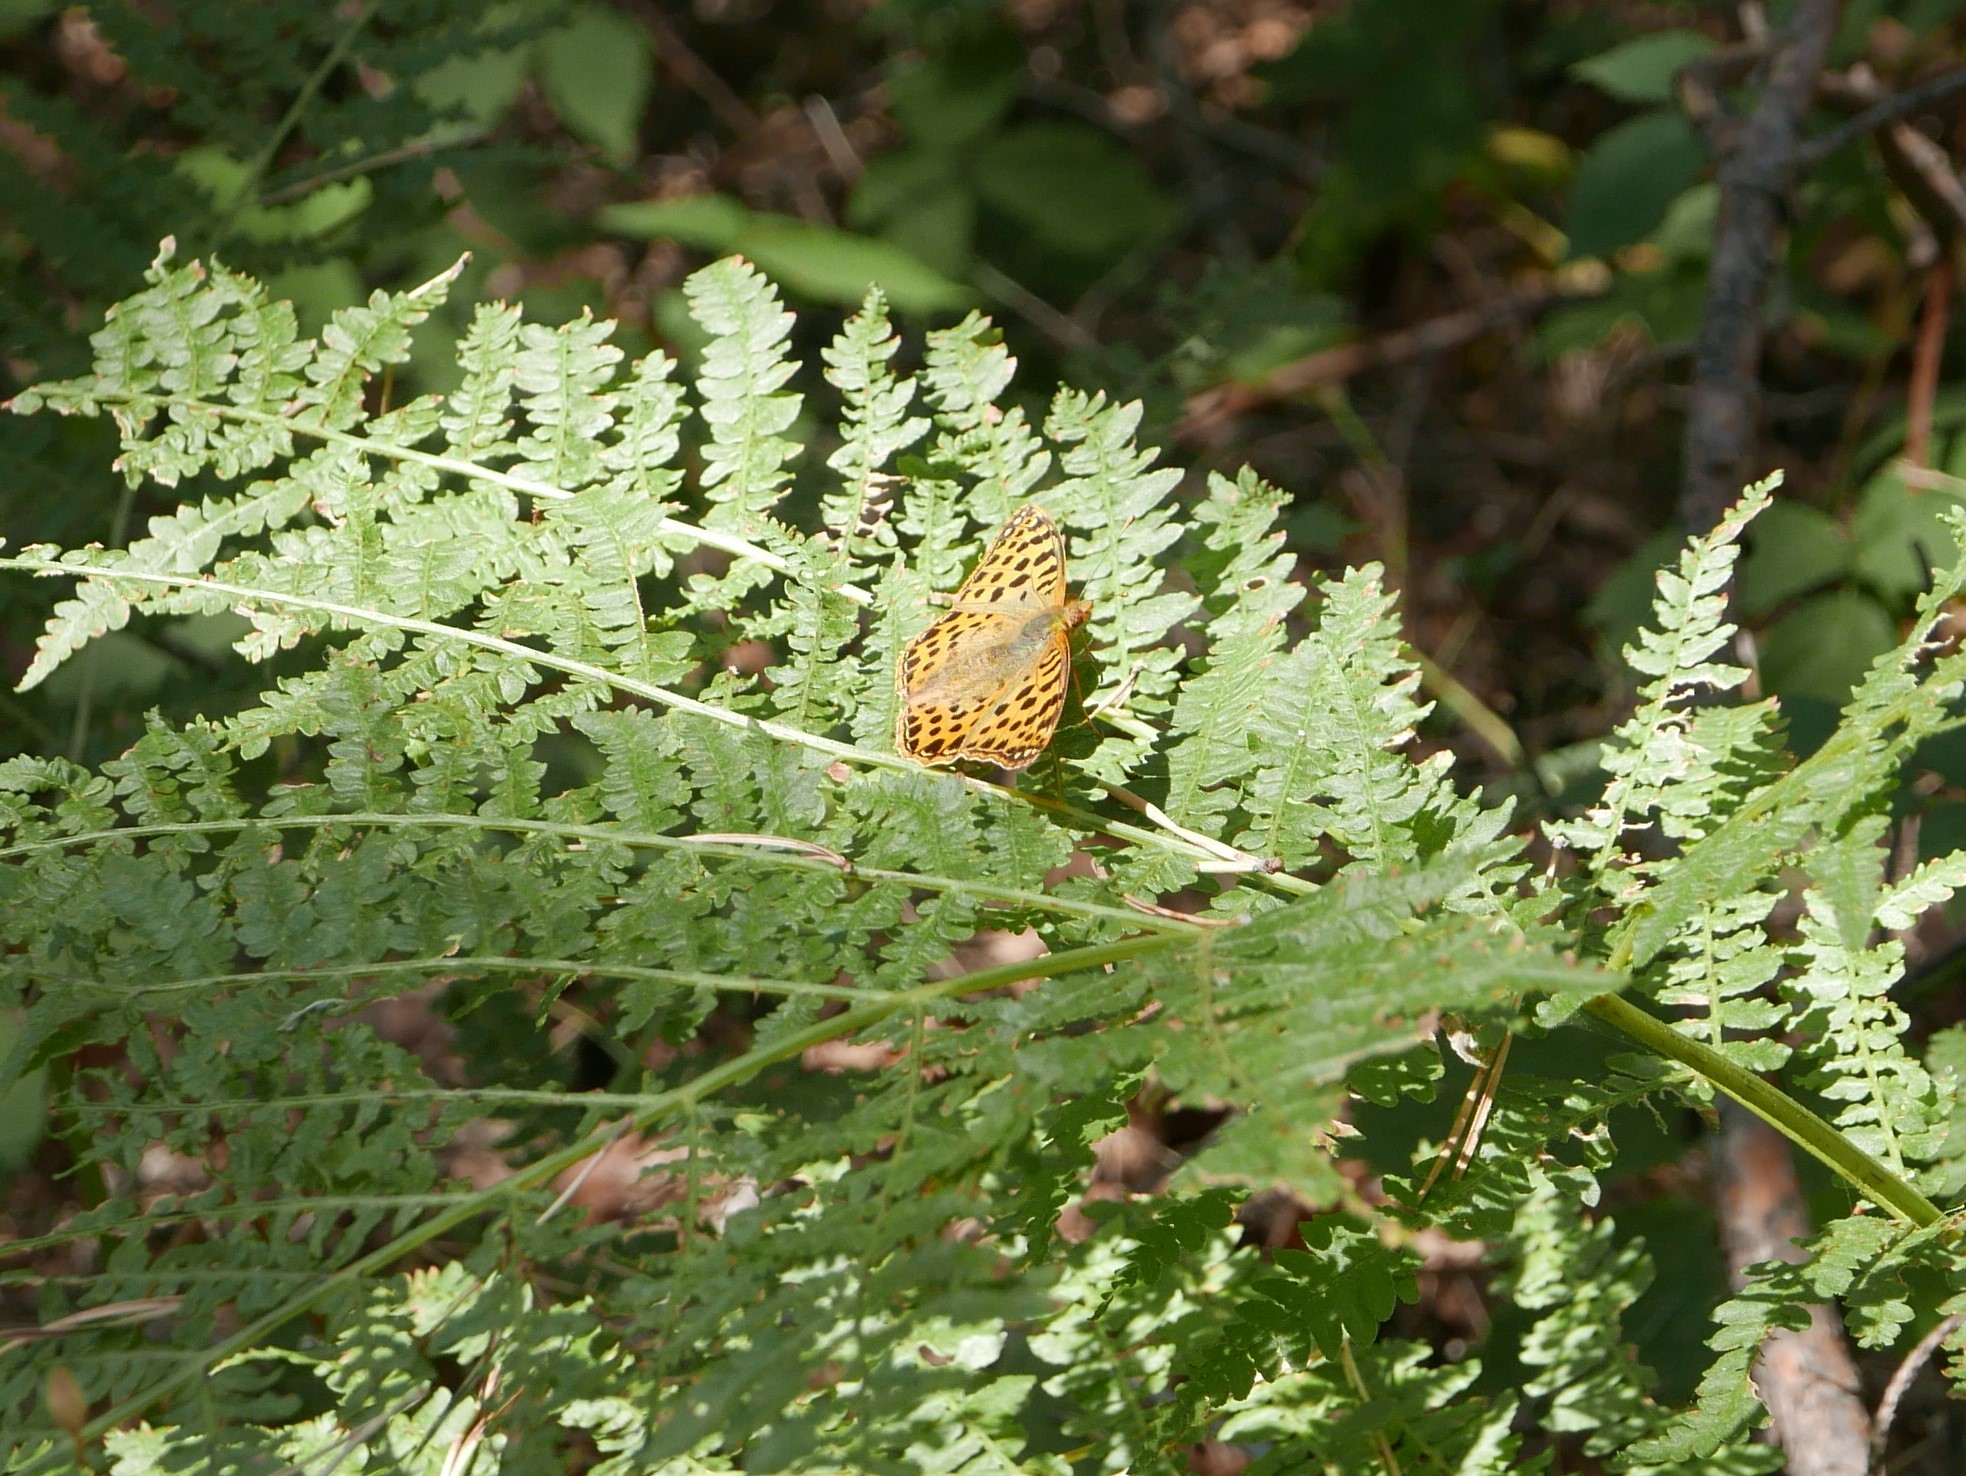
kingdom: Animalia
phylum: Arthropoda
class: Insecta
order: Lepidoptera
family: Nymphalidae
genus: Issoria
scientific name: Issoria lathonia
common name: Queen of spain fritillary
